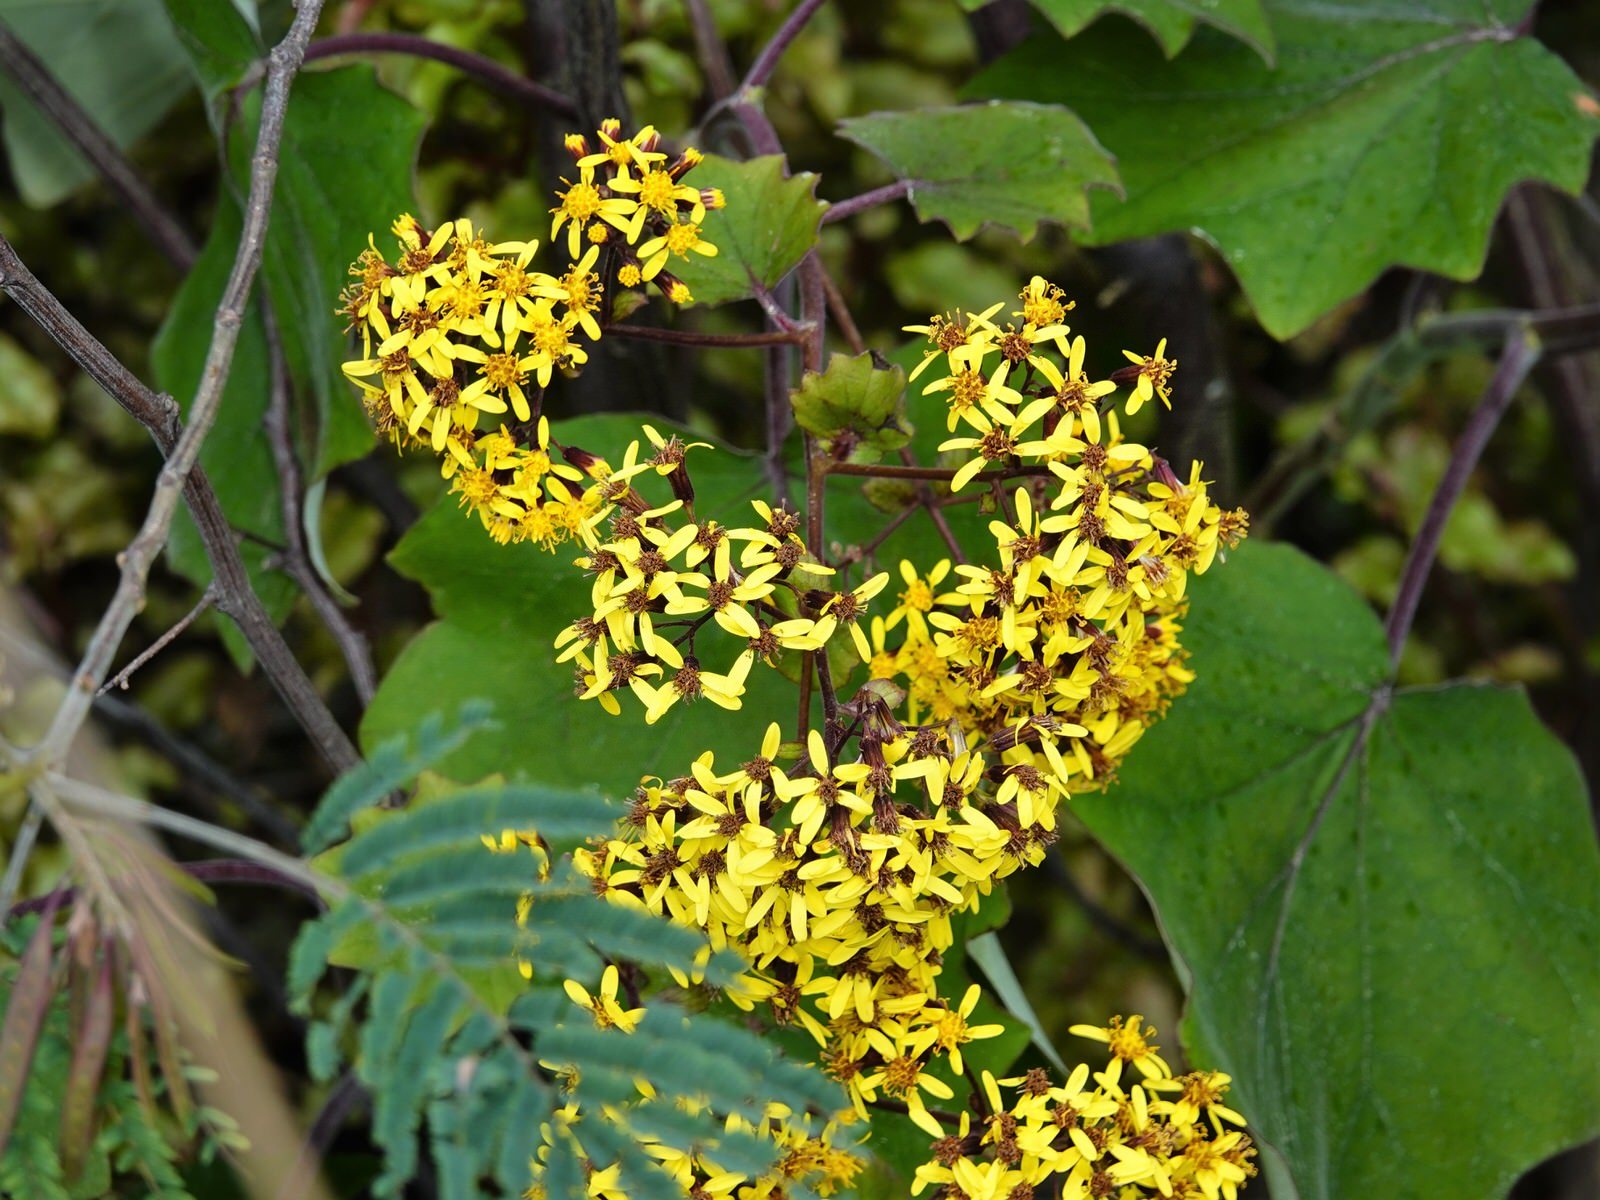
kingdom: Plantae
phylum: Tracheophyta
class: Magnoliopsida
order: Asterales
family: Asteraceae
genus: Roldana
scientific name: Roldana petasitis
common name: California-geranium
